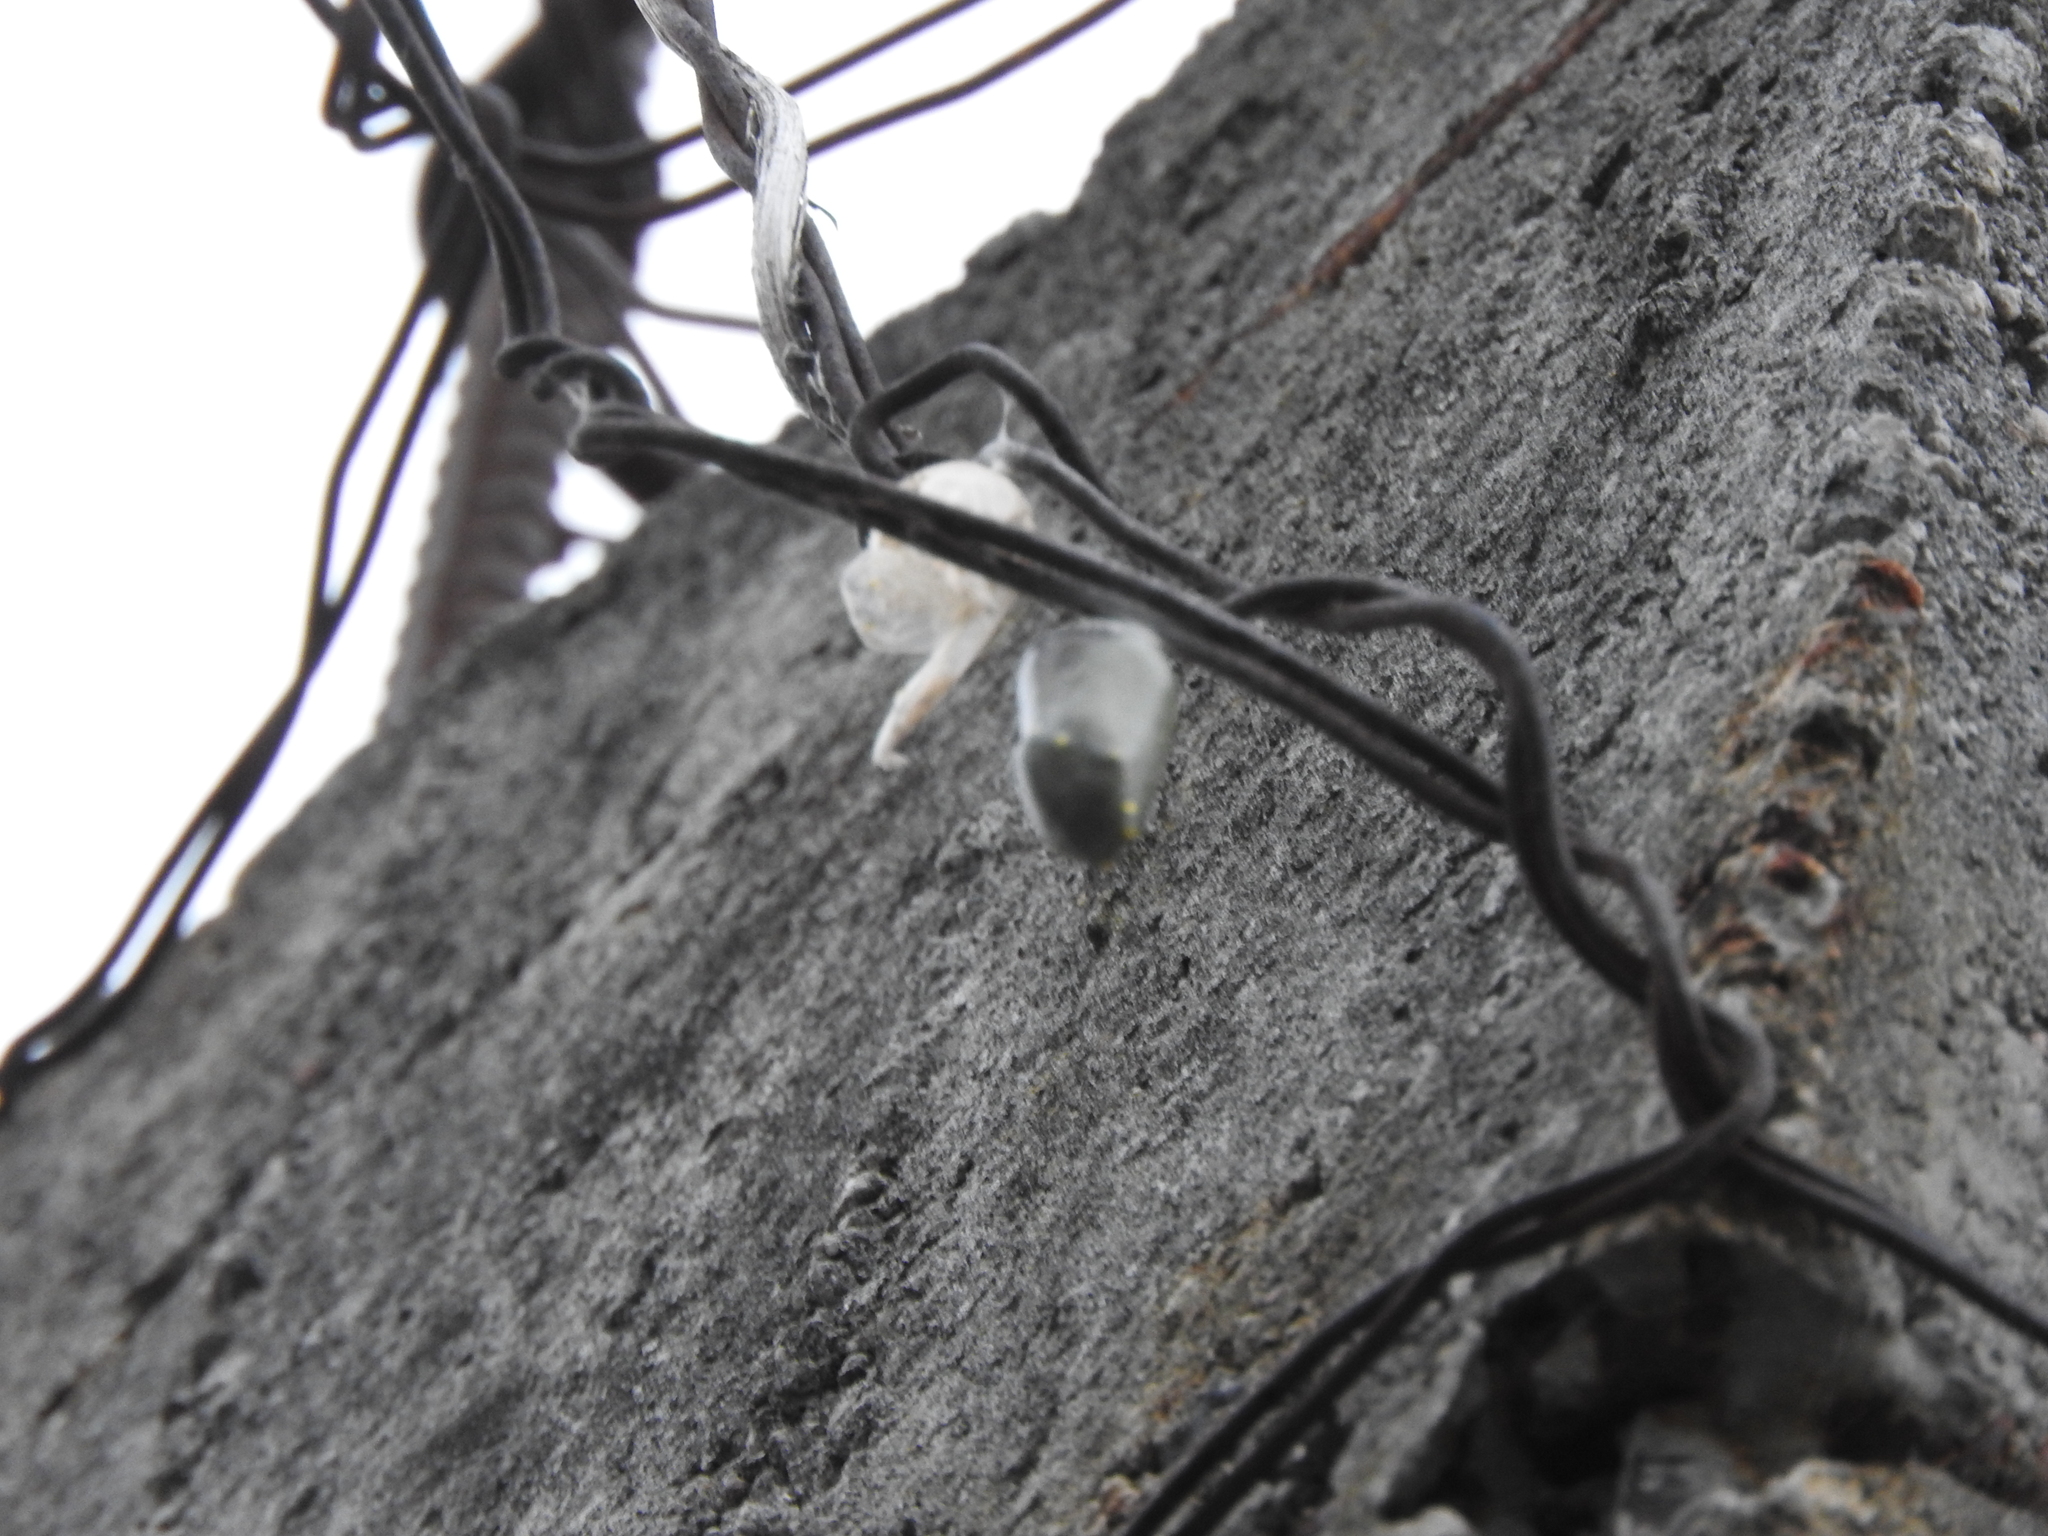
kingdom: Animalia
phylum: Arthropoda
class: Insecta
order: Lepidoptera
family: Nymphalidae
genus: Danaus
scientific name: Danaus plexippus
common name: Monarch
